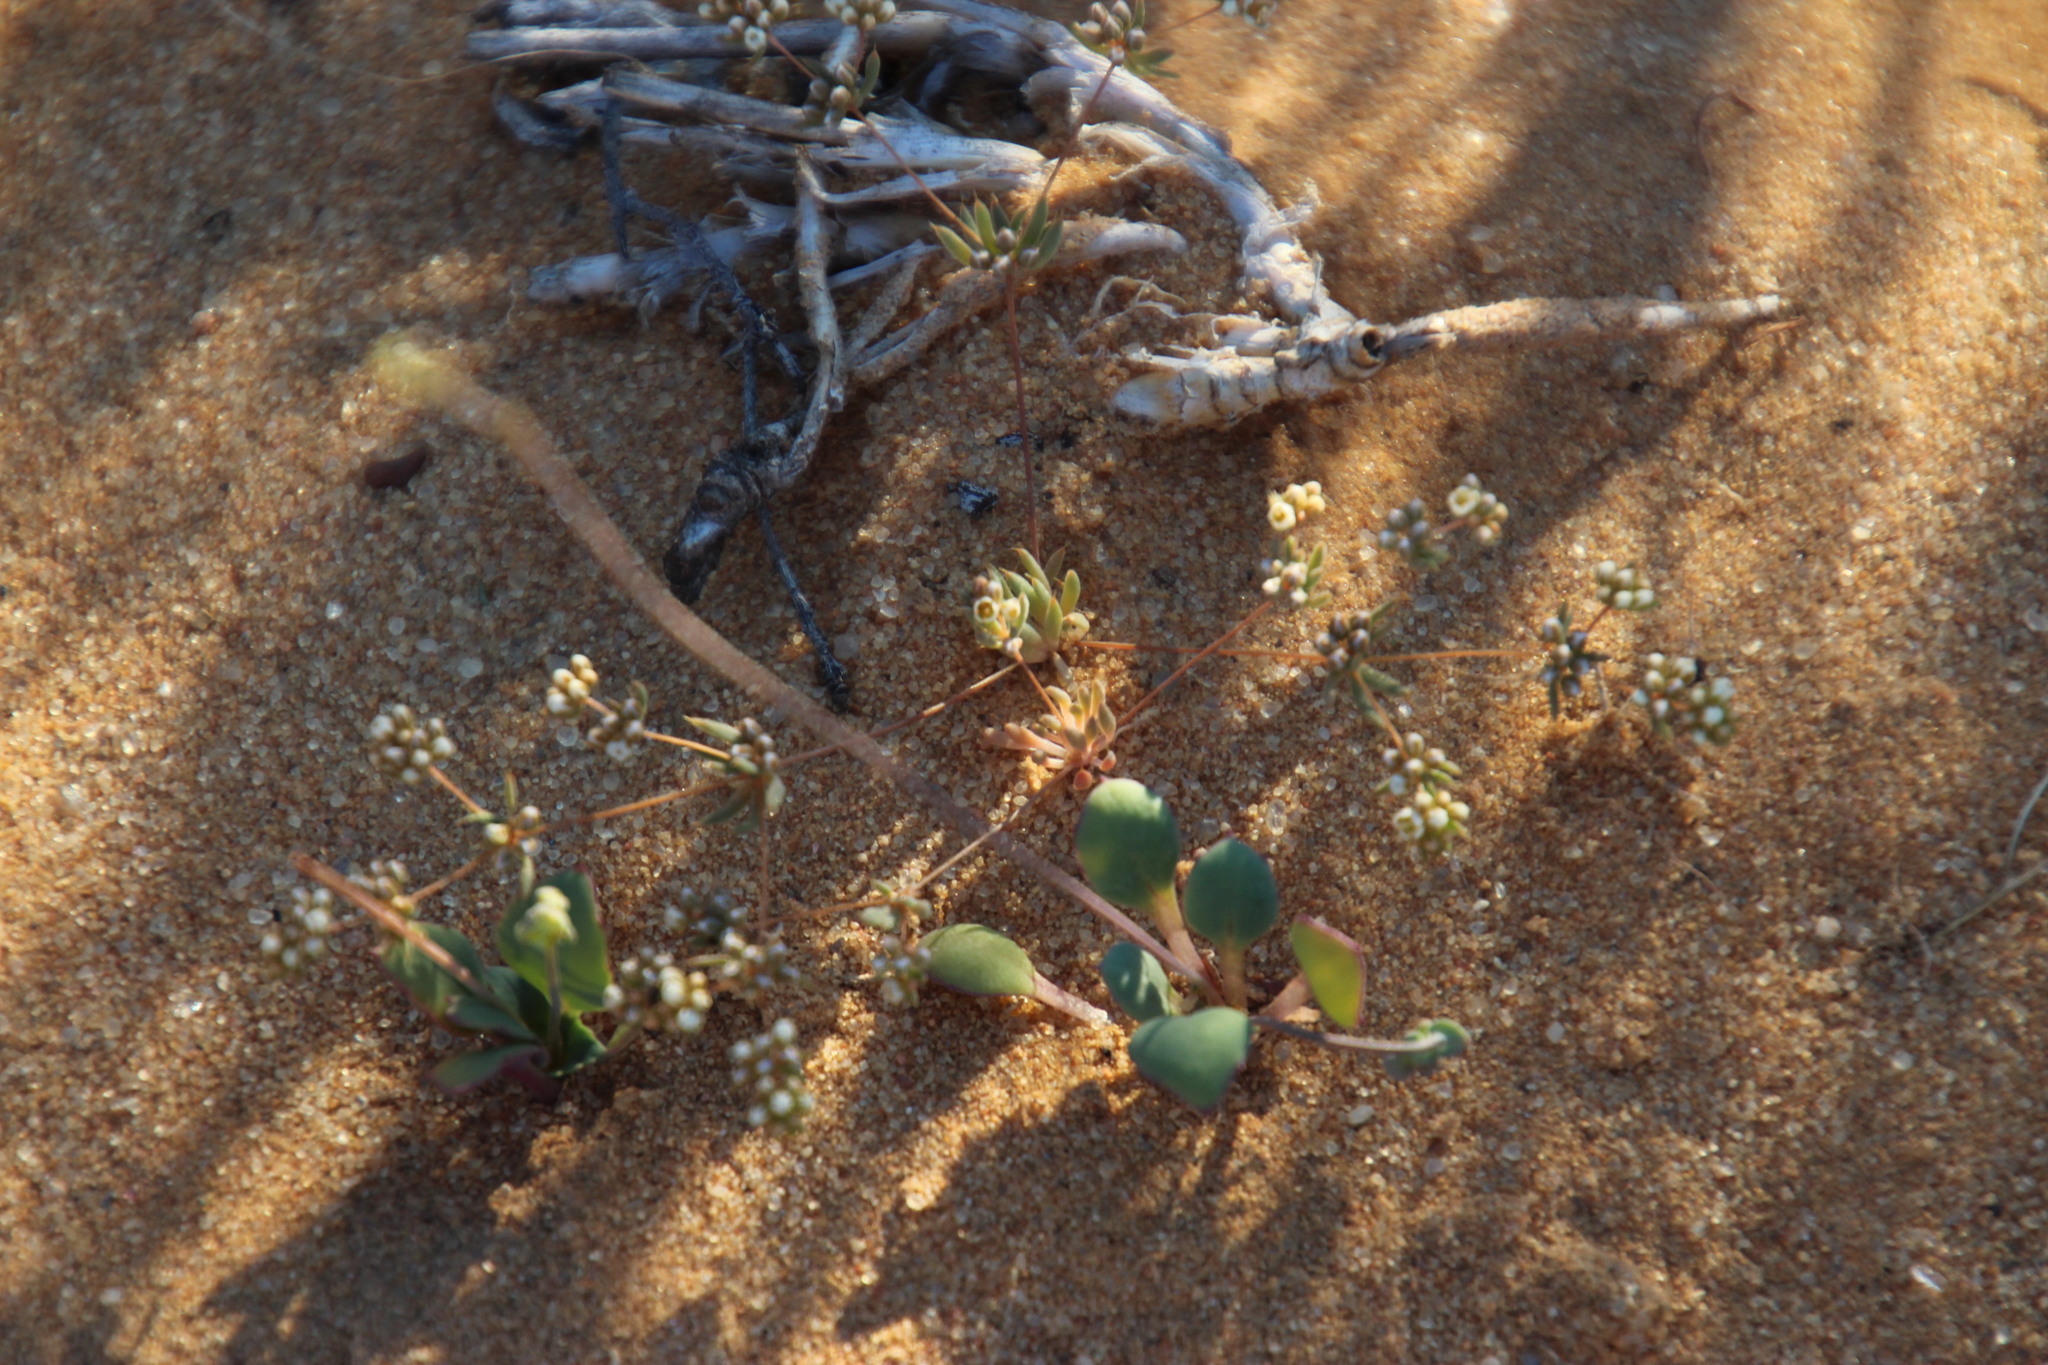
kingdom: Plantae
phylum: Tracheophyta
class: Magnoliopsida
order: Caryophyllales
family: Molluginaceae
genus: Adenogramma
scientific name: Adenogramma mollugo
